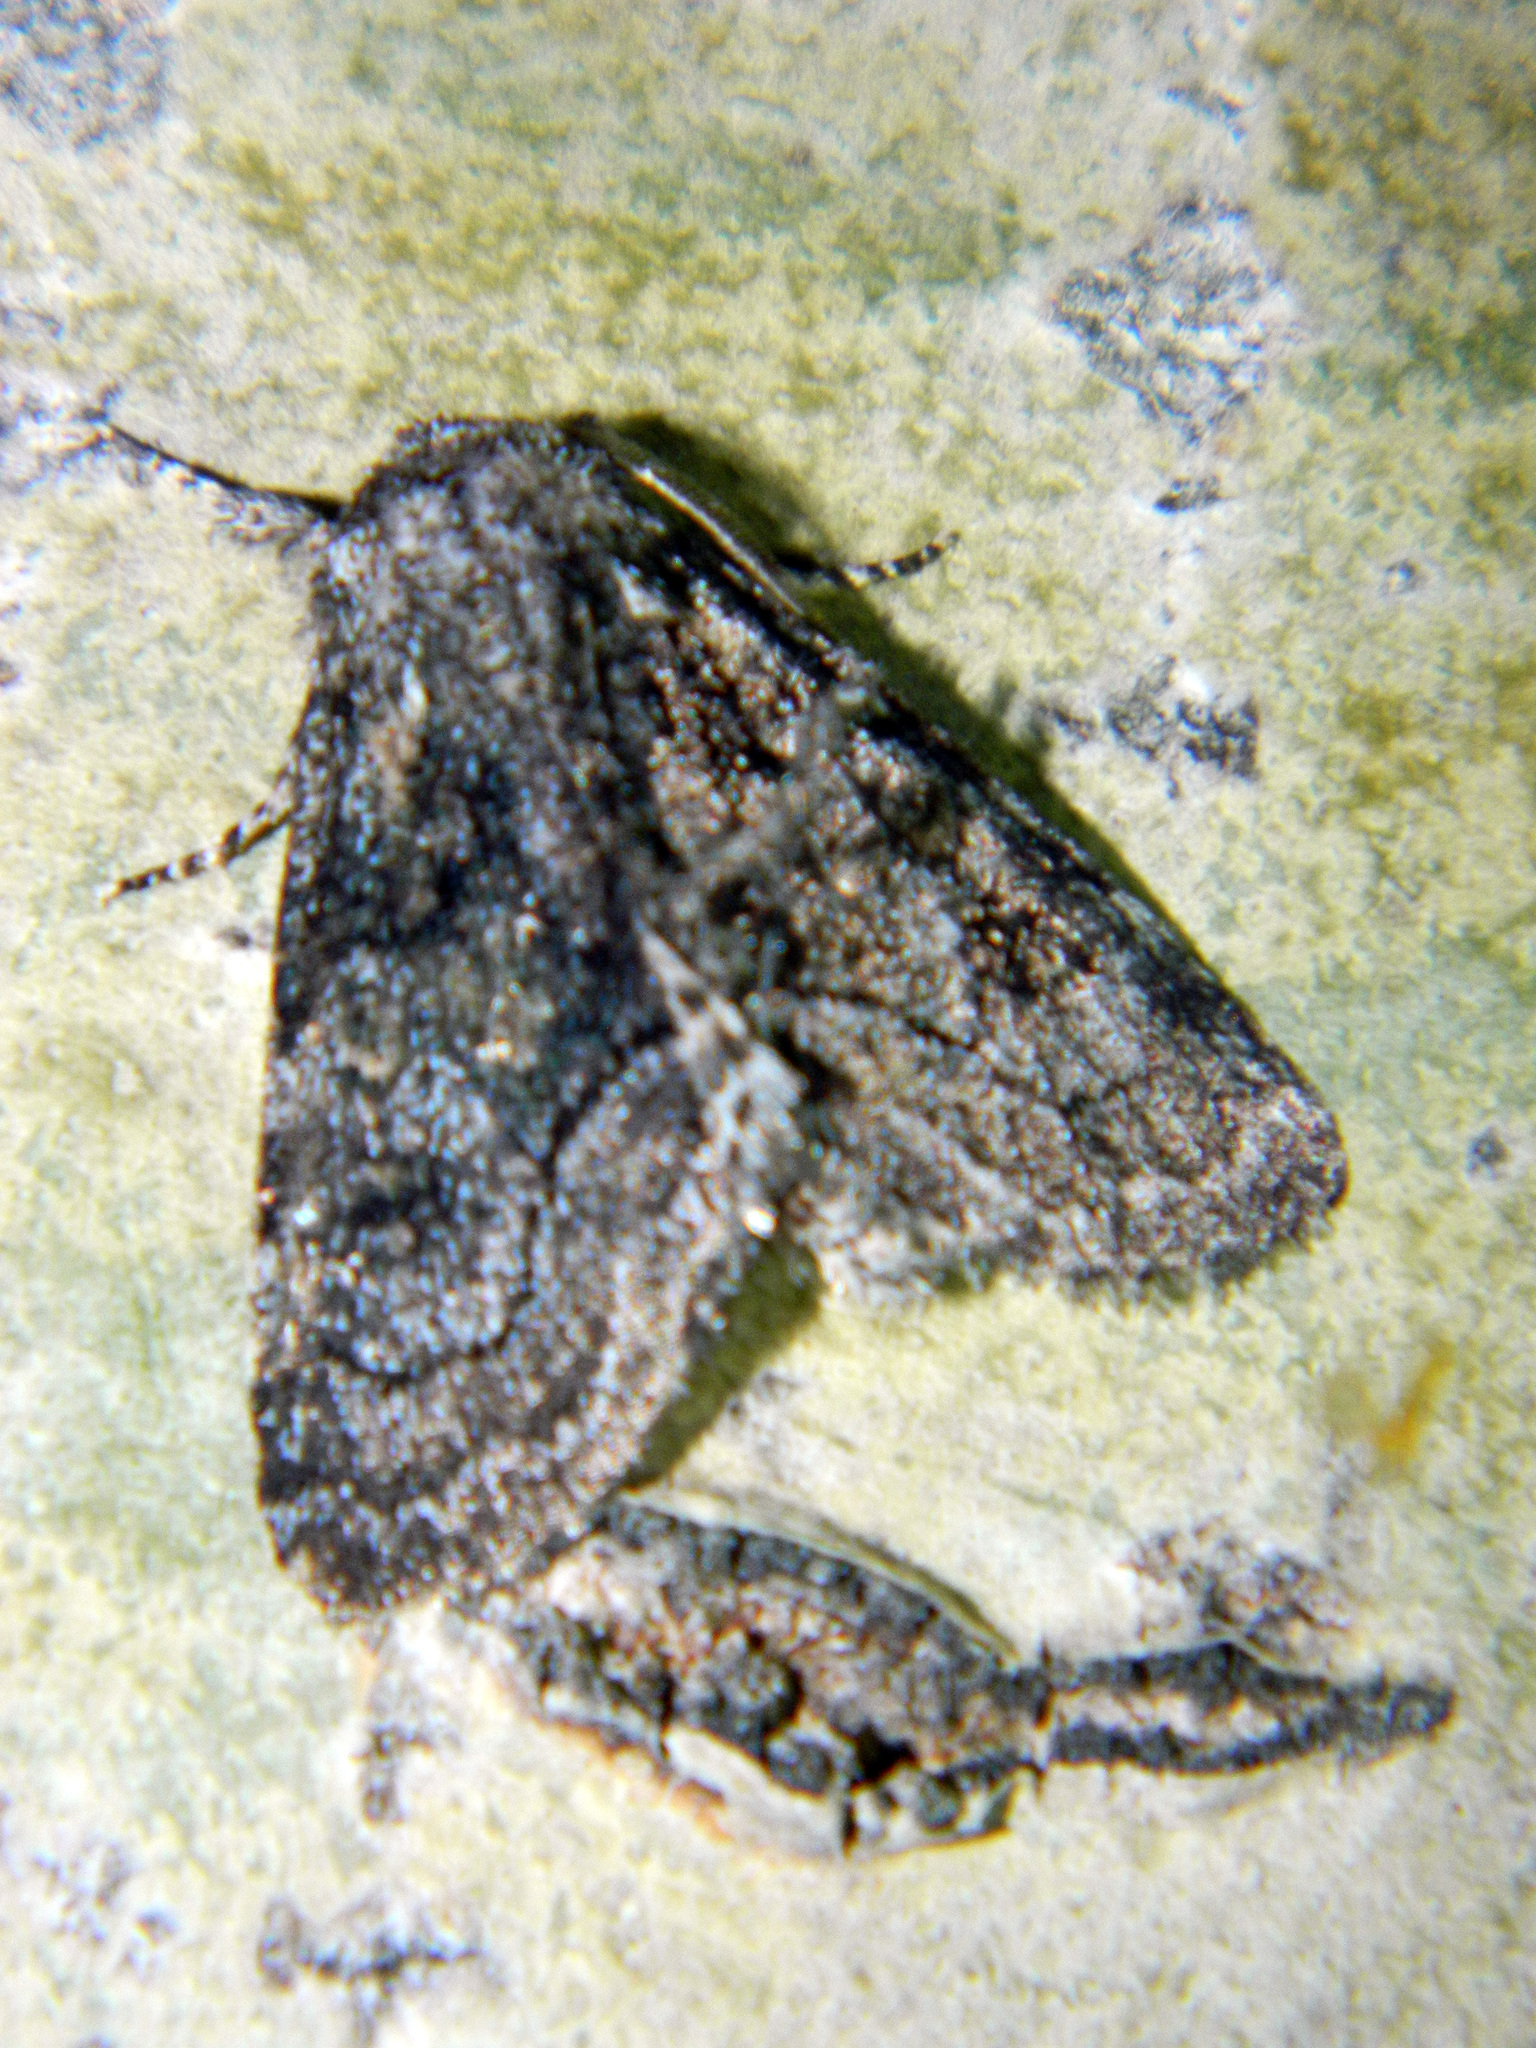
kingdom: Animalia
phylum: Arthropoda
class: Insecta
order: Lepidoptera
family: Noctuidae
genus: Raphia
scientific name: Raphia frater
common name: Brother
